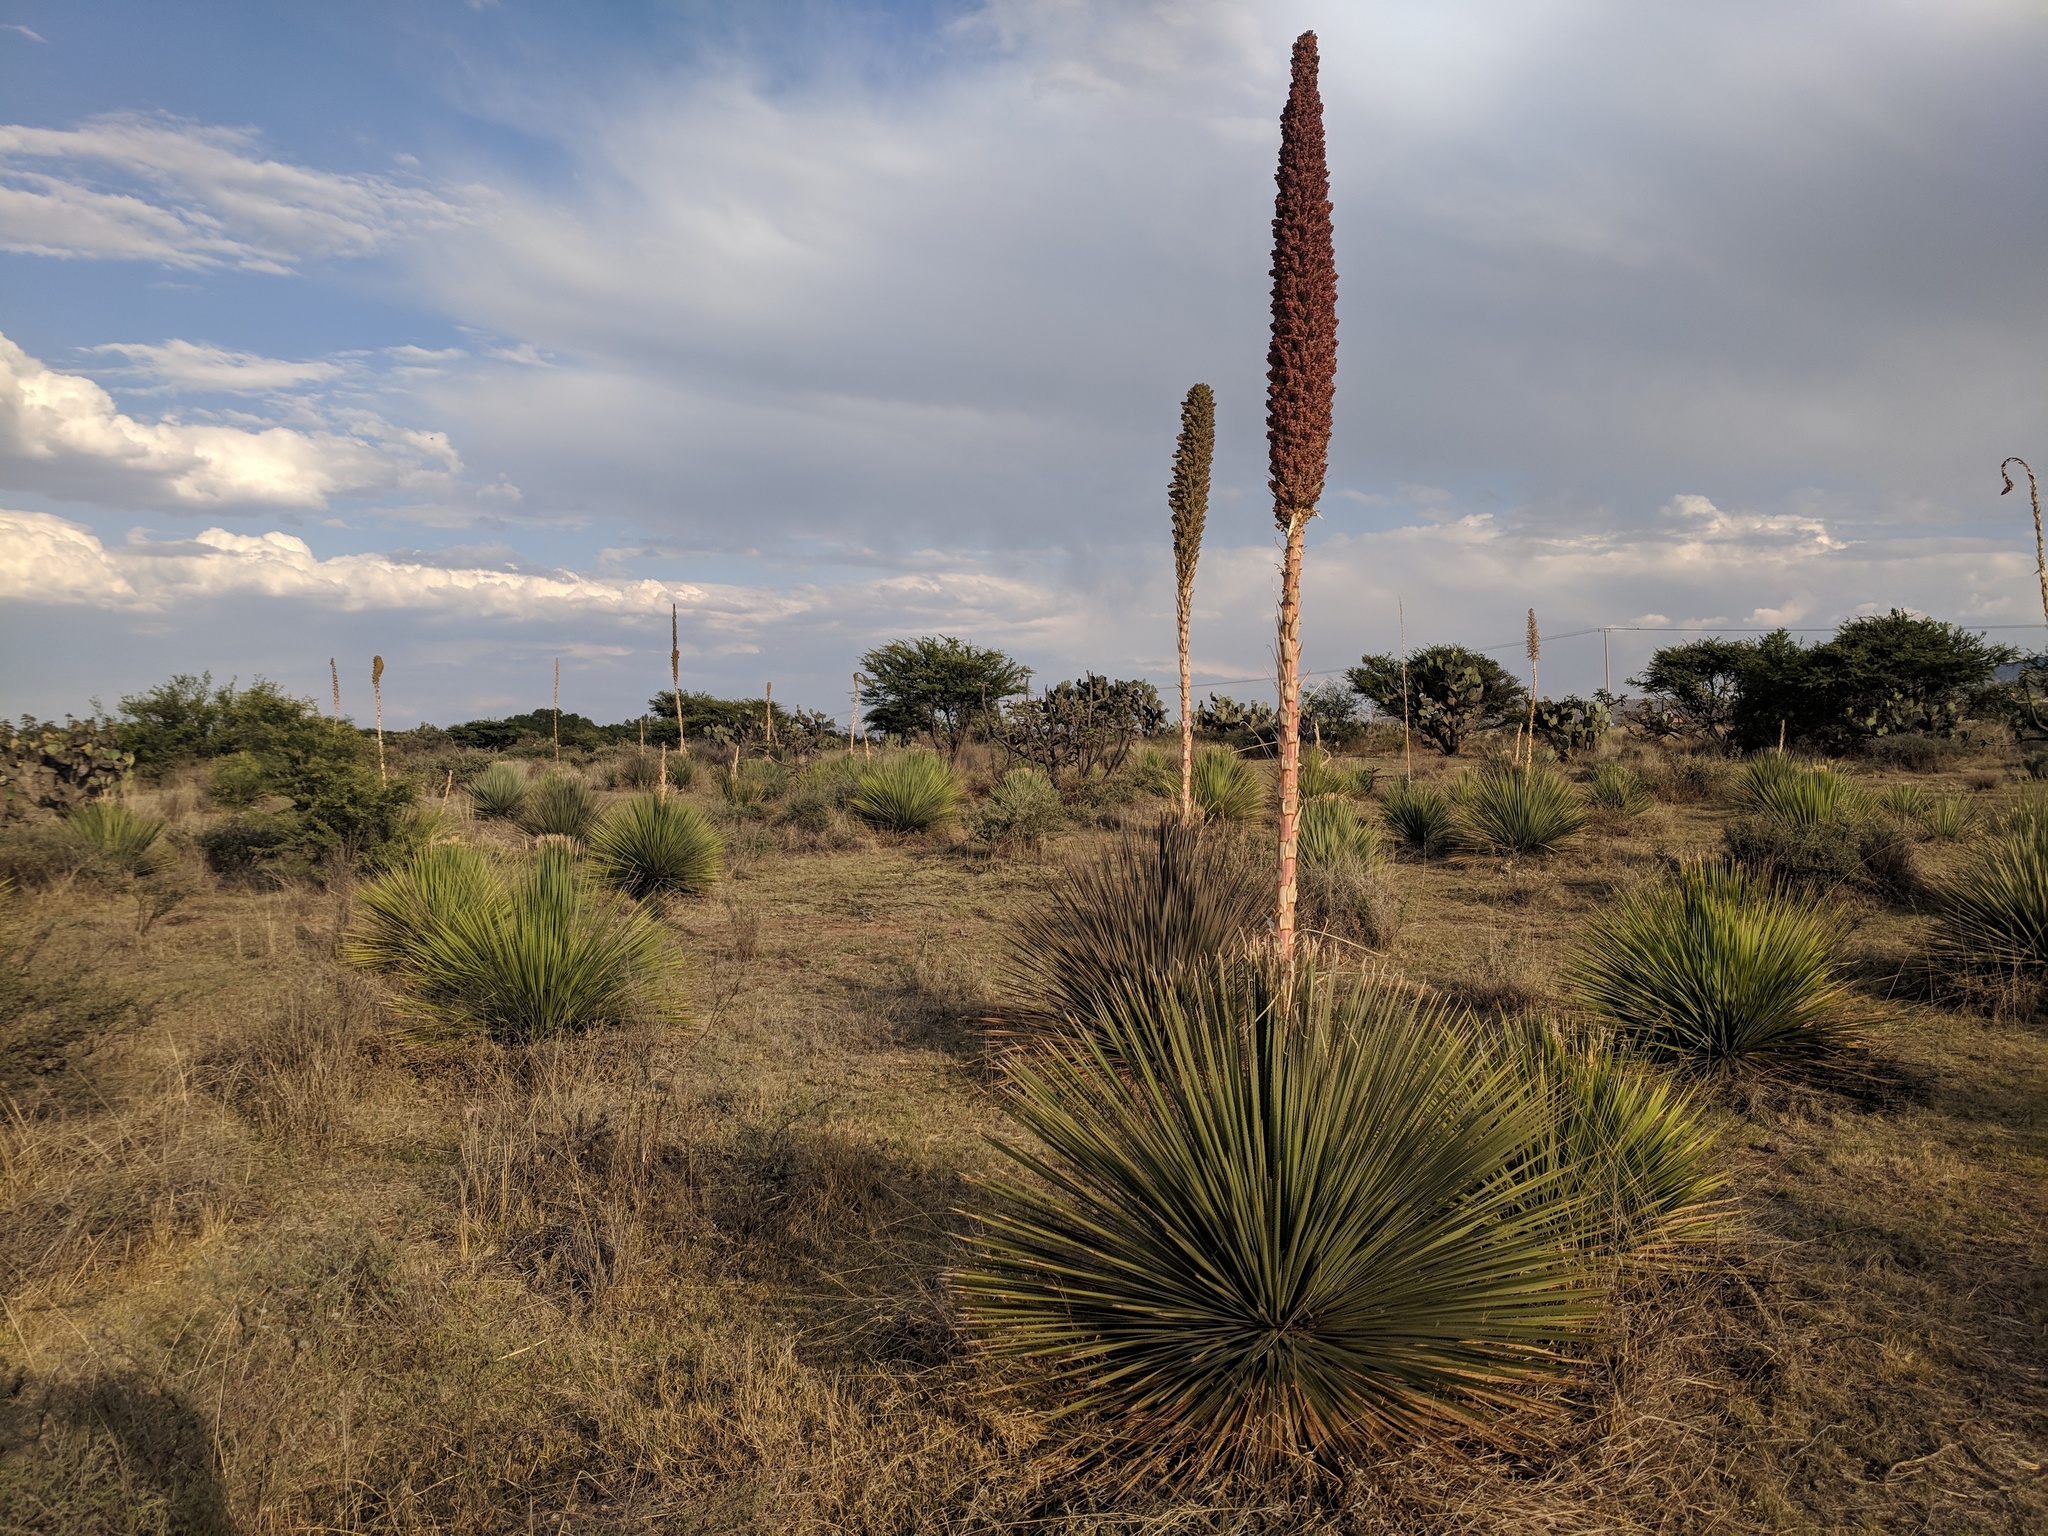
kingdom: Plantae
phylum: Tracheophyta
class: Liliopsida
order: Asparagales
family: Asparagaceae
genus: Dasylirion
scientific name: Dasylirion acrotrichum
